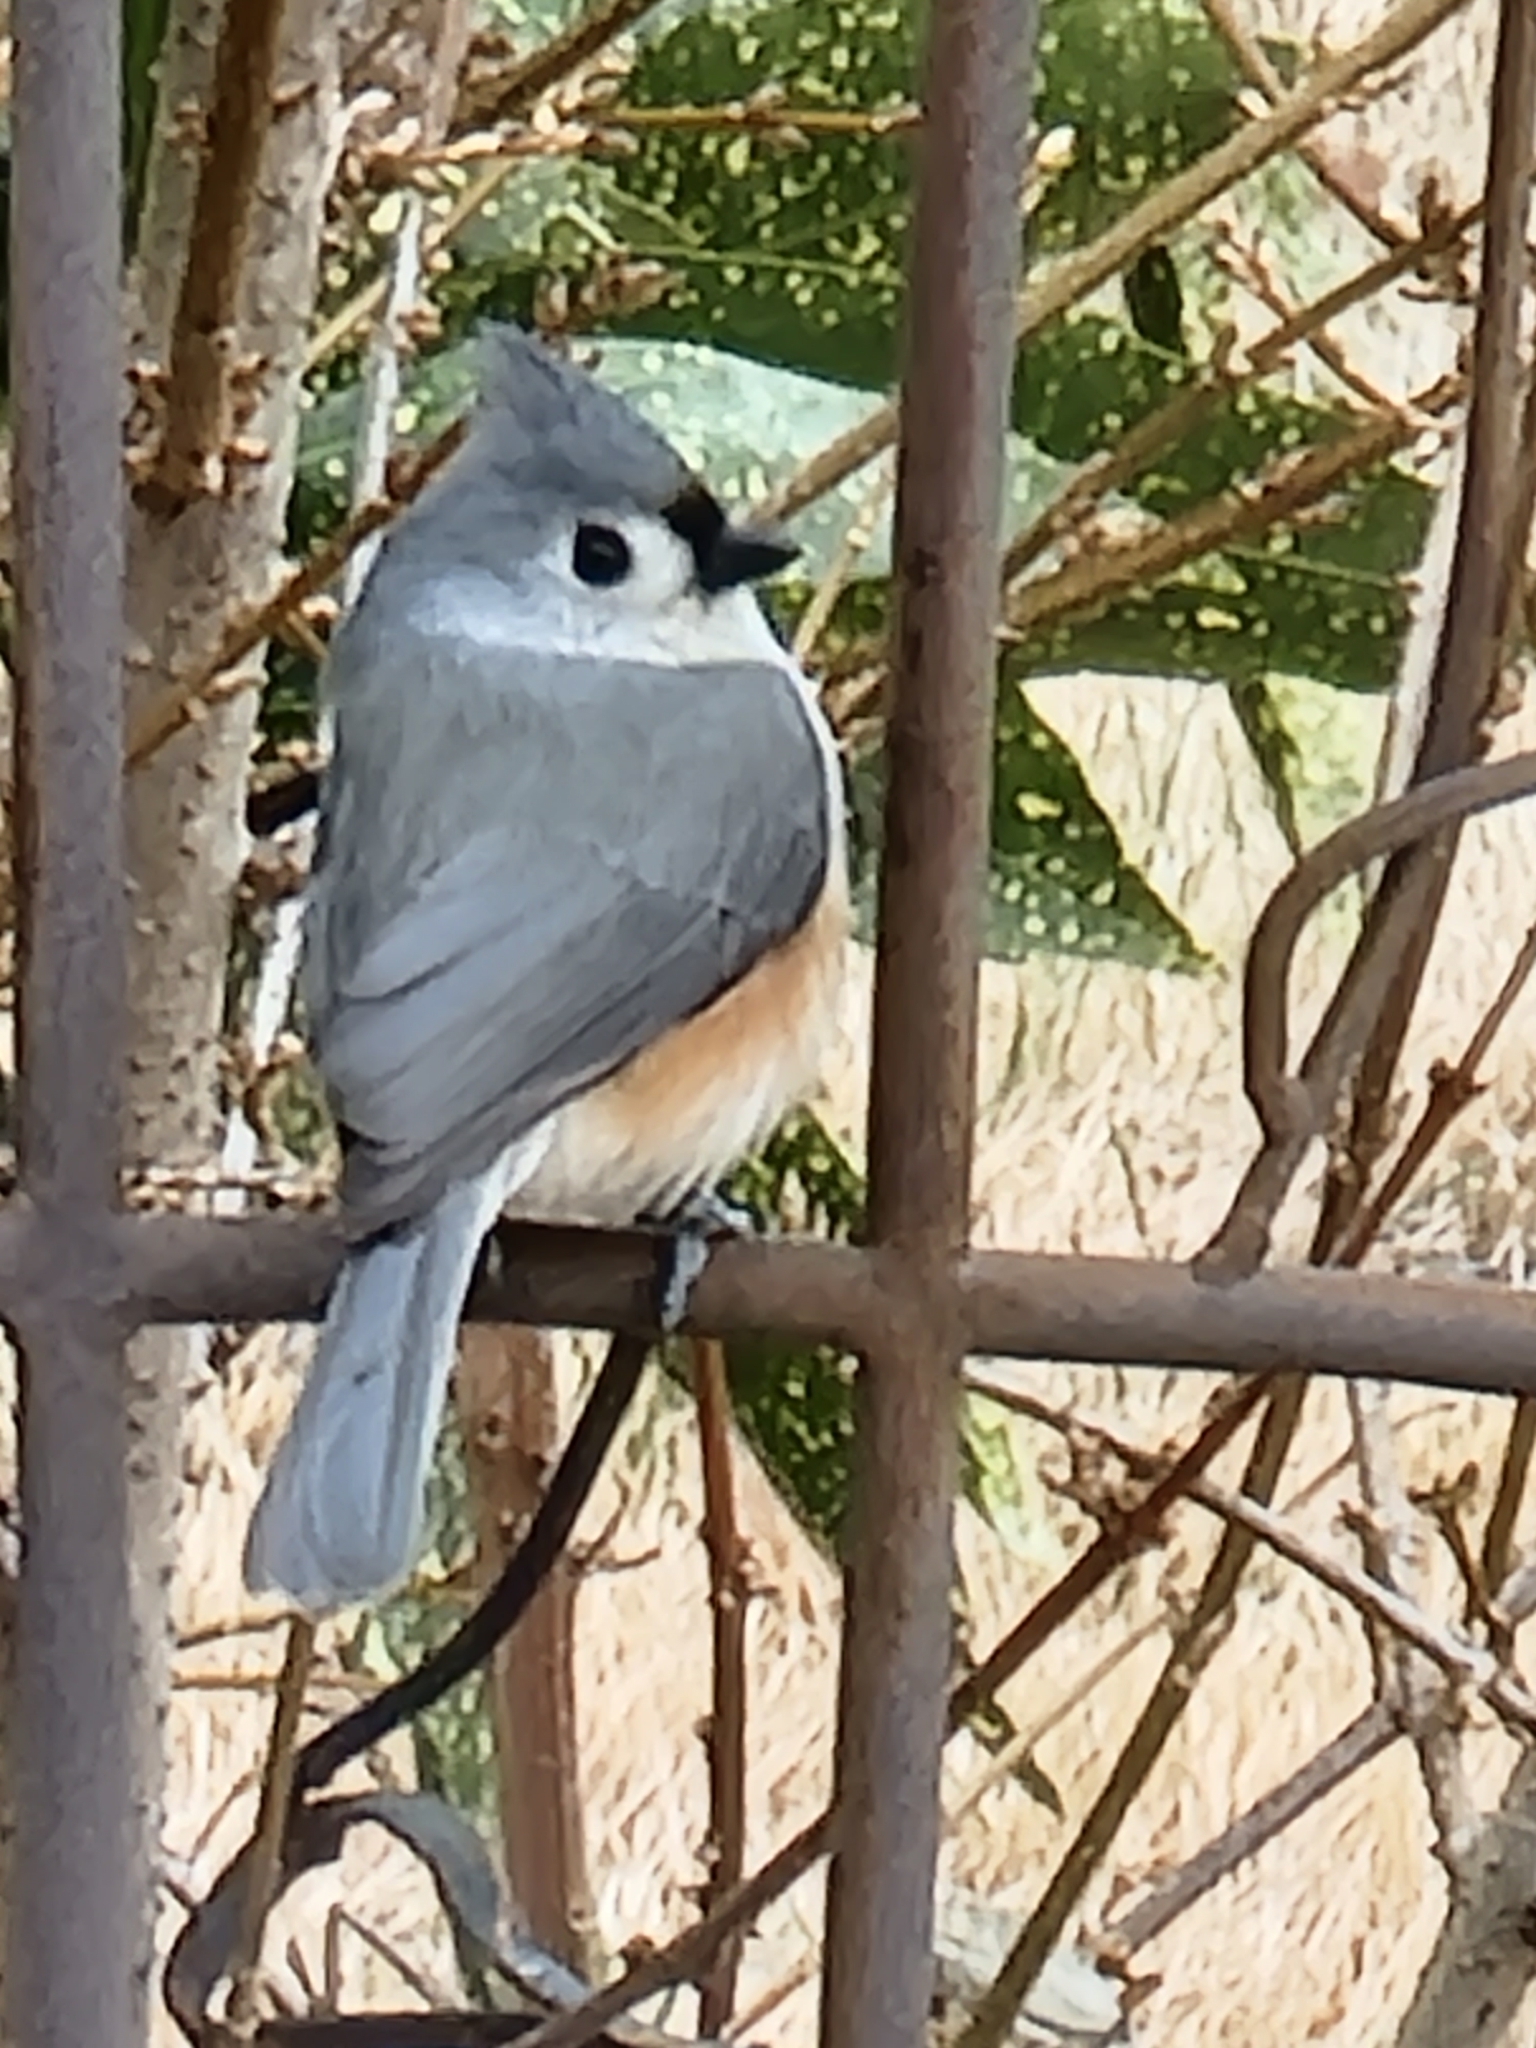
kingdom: Animalia
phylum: Chordata
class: Aves
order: Passeriformes
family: Paridae
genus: Baeolophus
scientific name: Baeolophus bicolor
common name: Tufted titmouse
